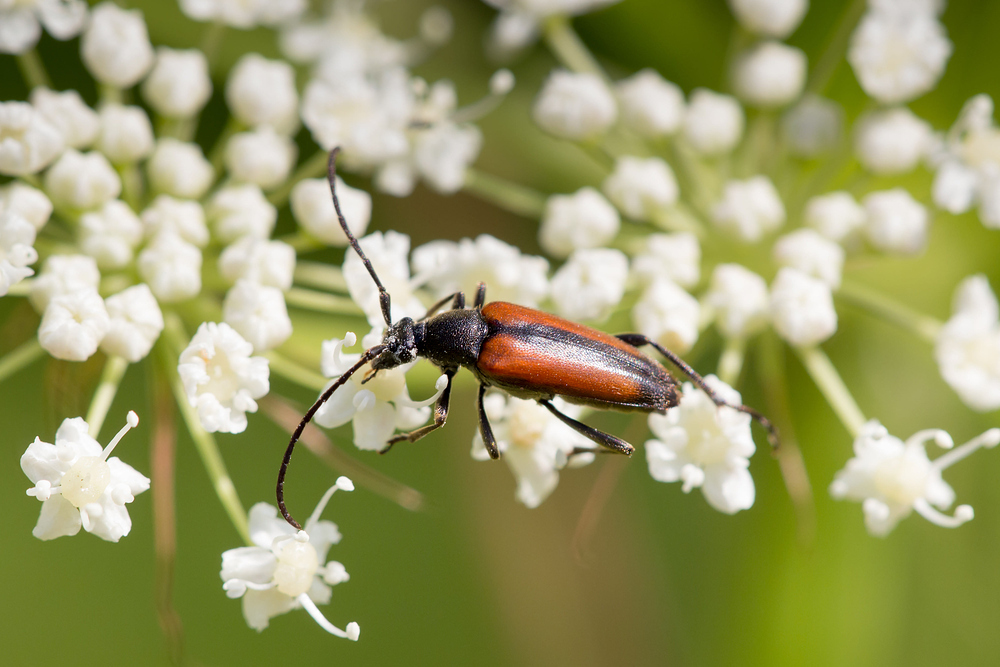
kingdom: Animalia
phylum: Arthropoda
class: Insecta
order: Coleoptera
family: Cerambycidae
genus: Stenurella
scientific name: Stenurella melanura
